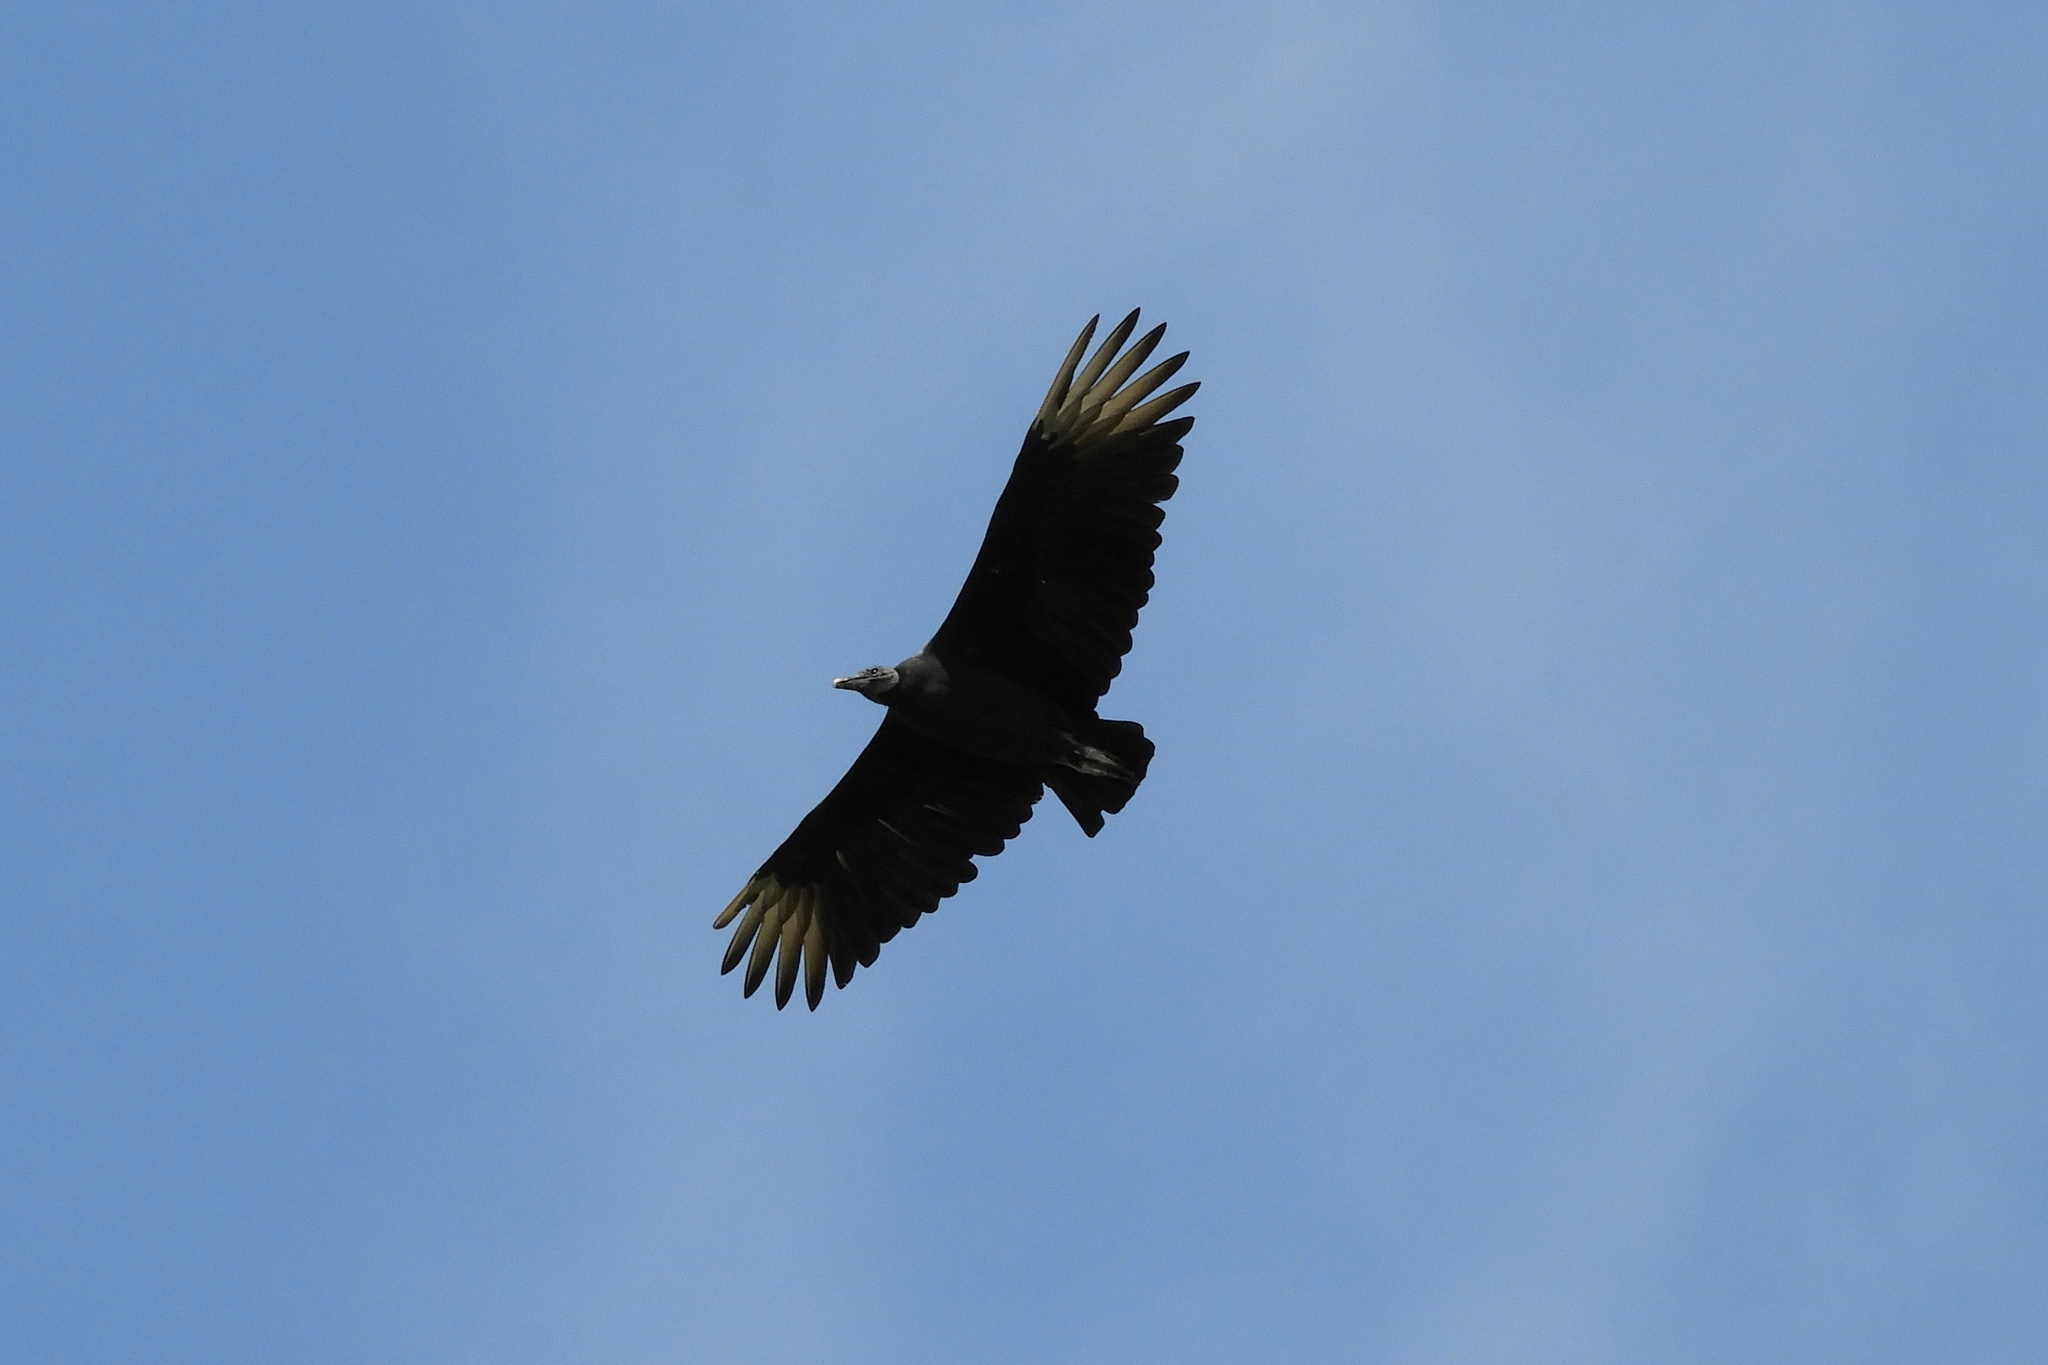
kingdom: Animalia
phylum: Chordata
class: Aves
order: Accipitriformes
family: Cathartidae
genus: Coragyps
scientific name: Coragyps atratus
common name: Black vulture
